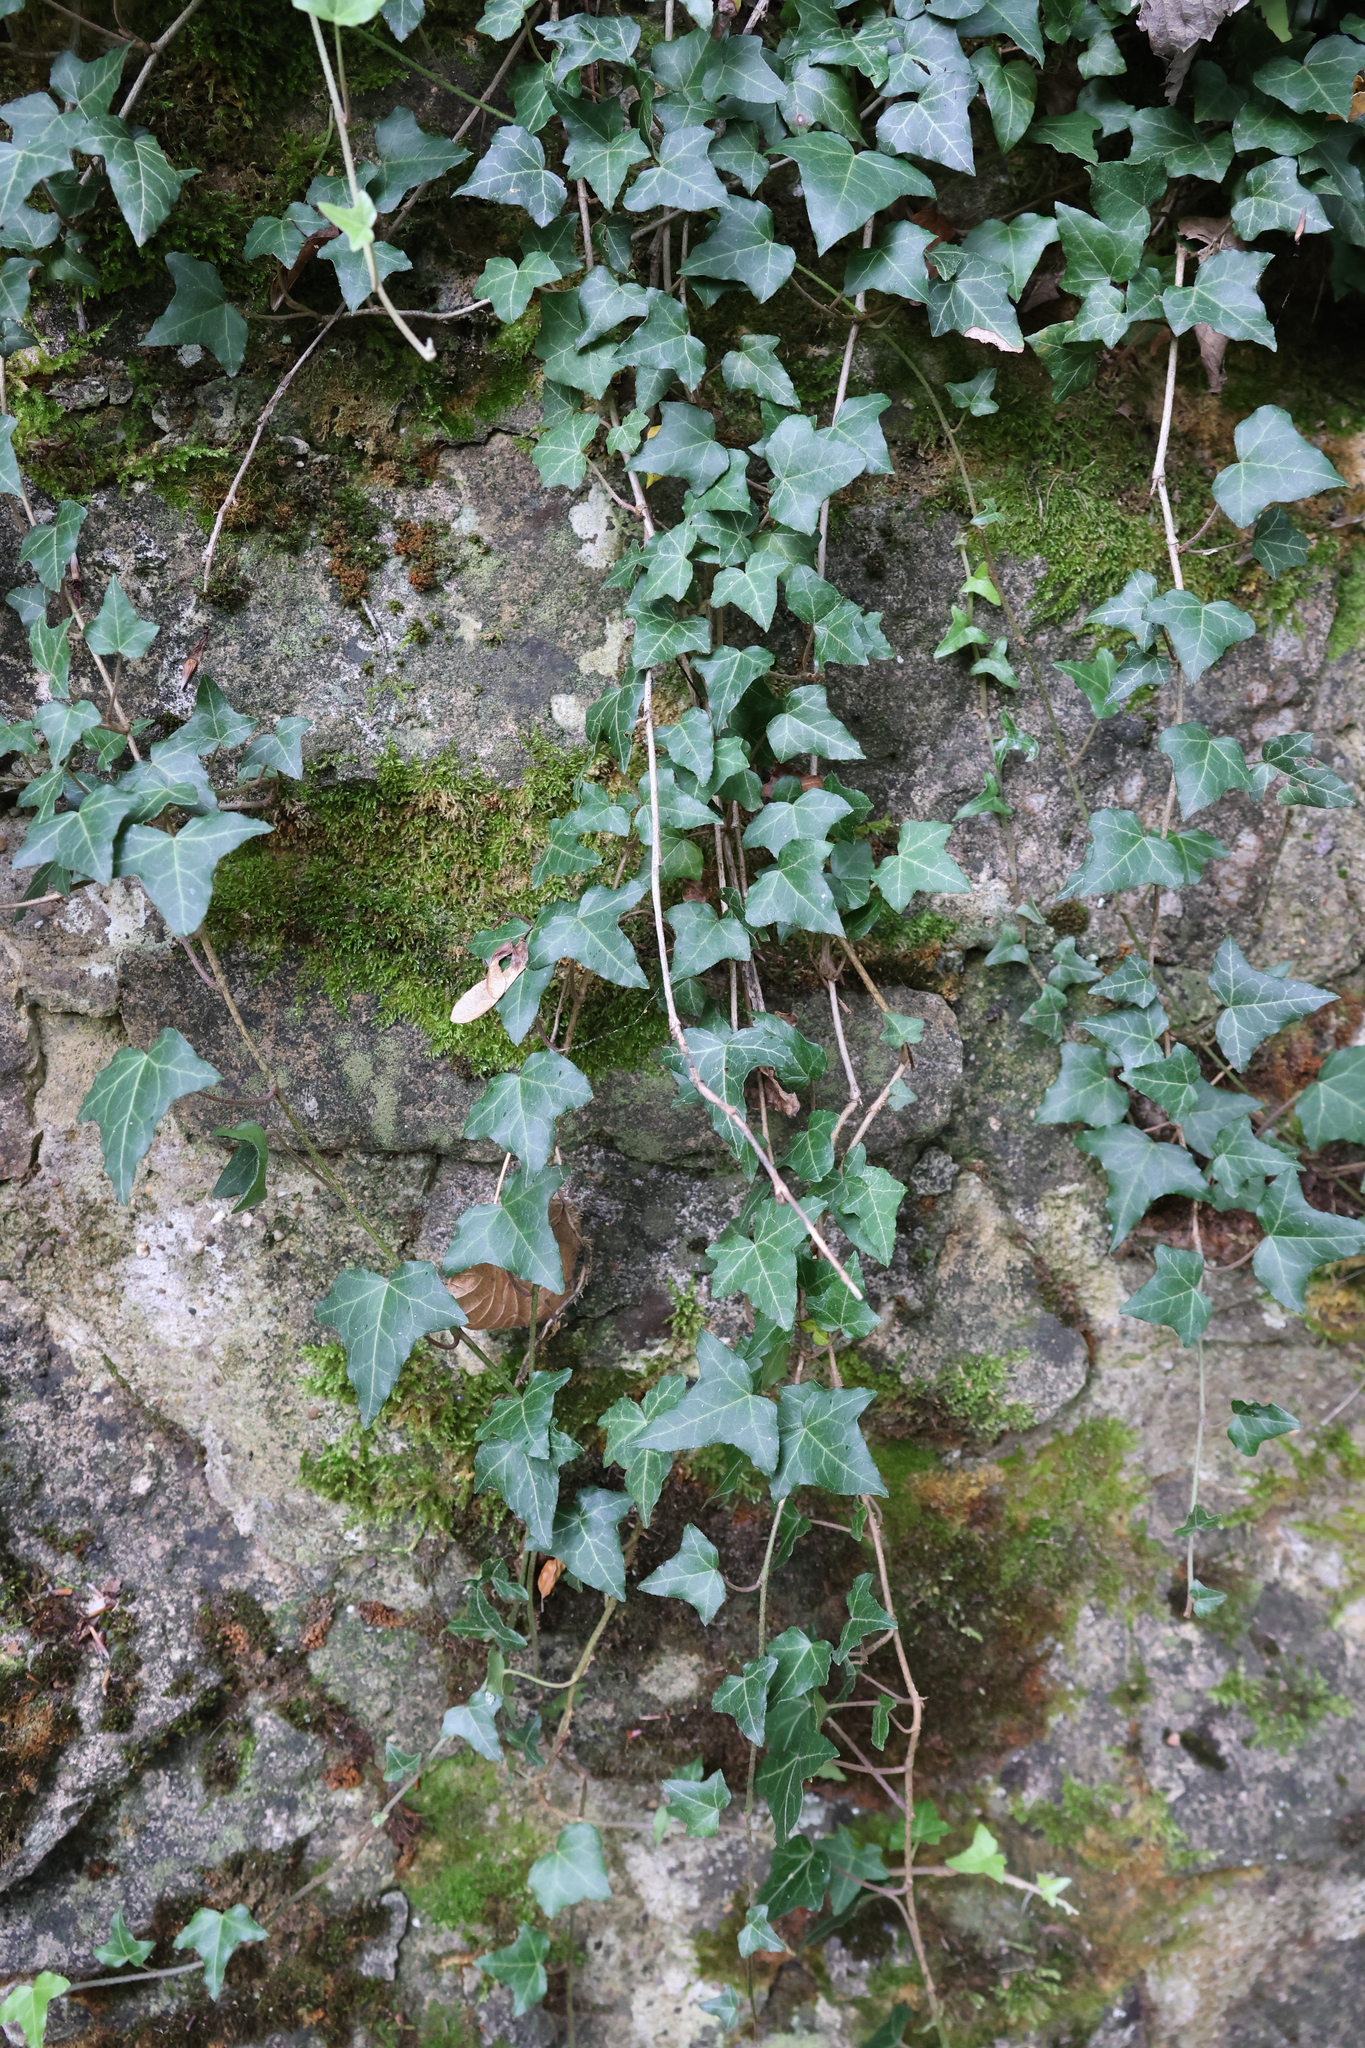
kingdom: Plantae
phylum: Tracheophyta
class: Magnoliopsida
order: Apiales
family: Araliaceae
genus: Hedera
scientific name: Hedera helix
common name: Ivy
